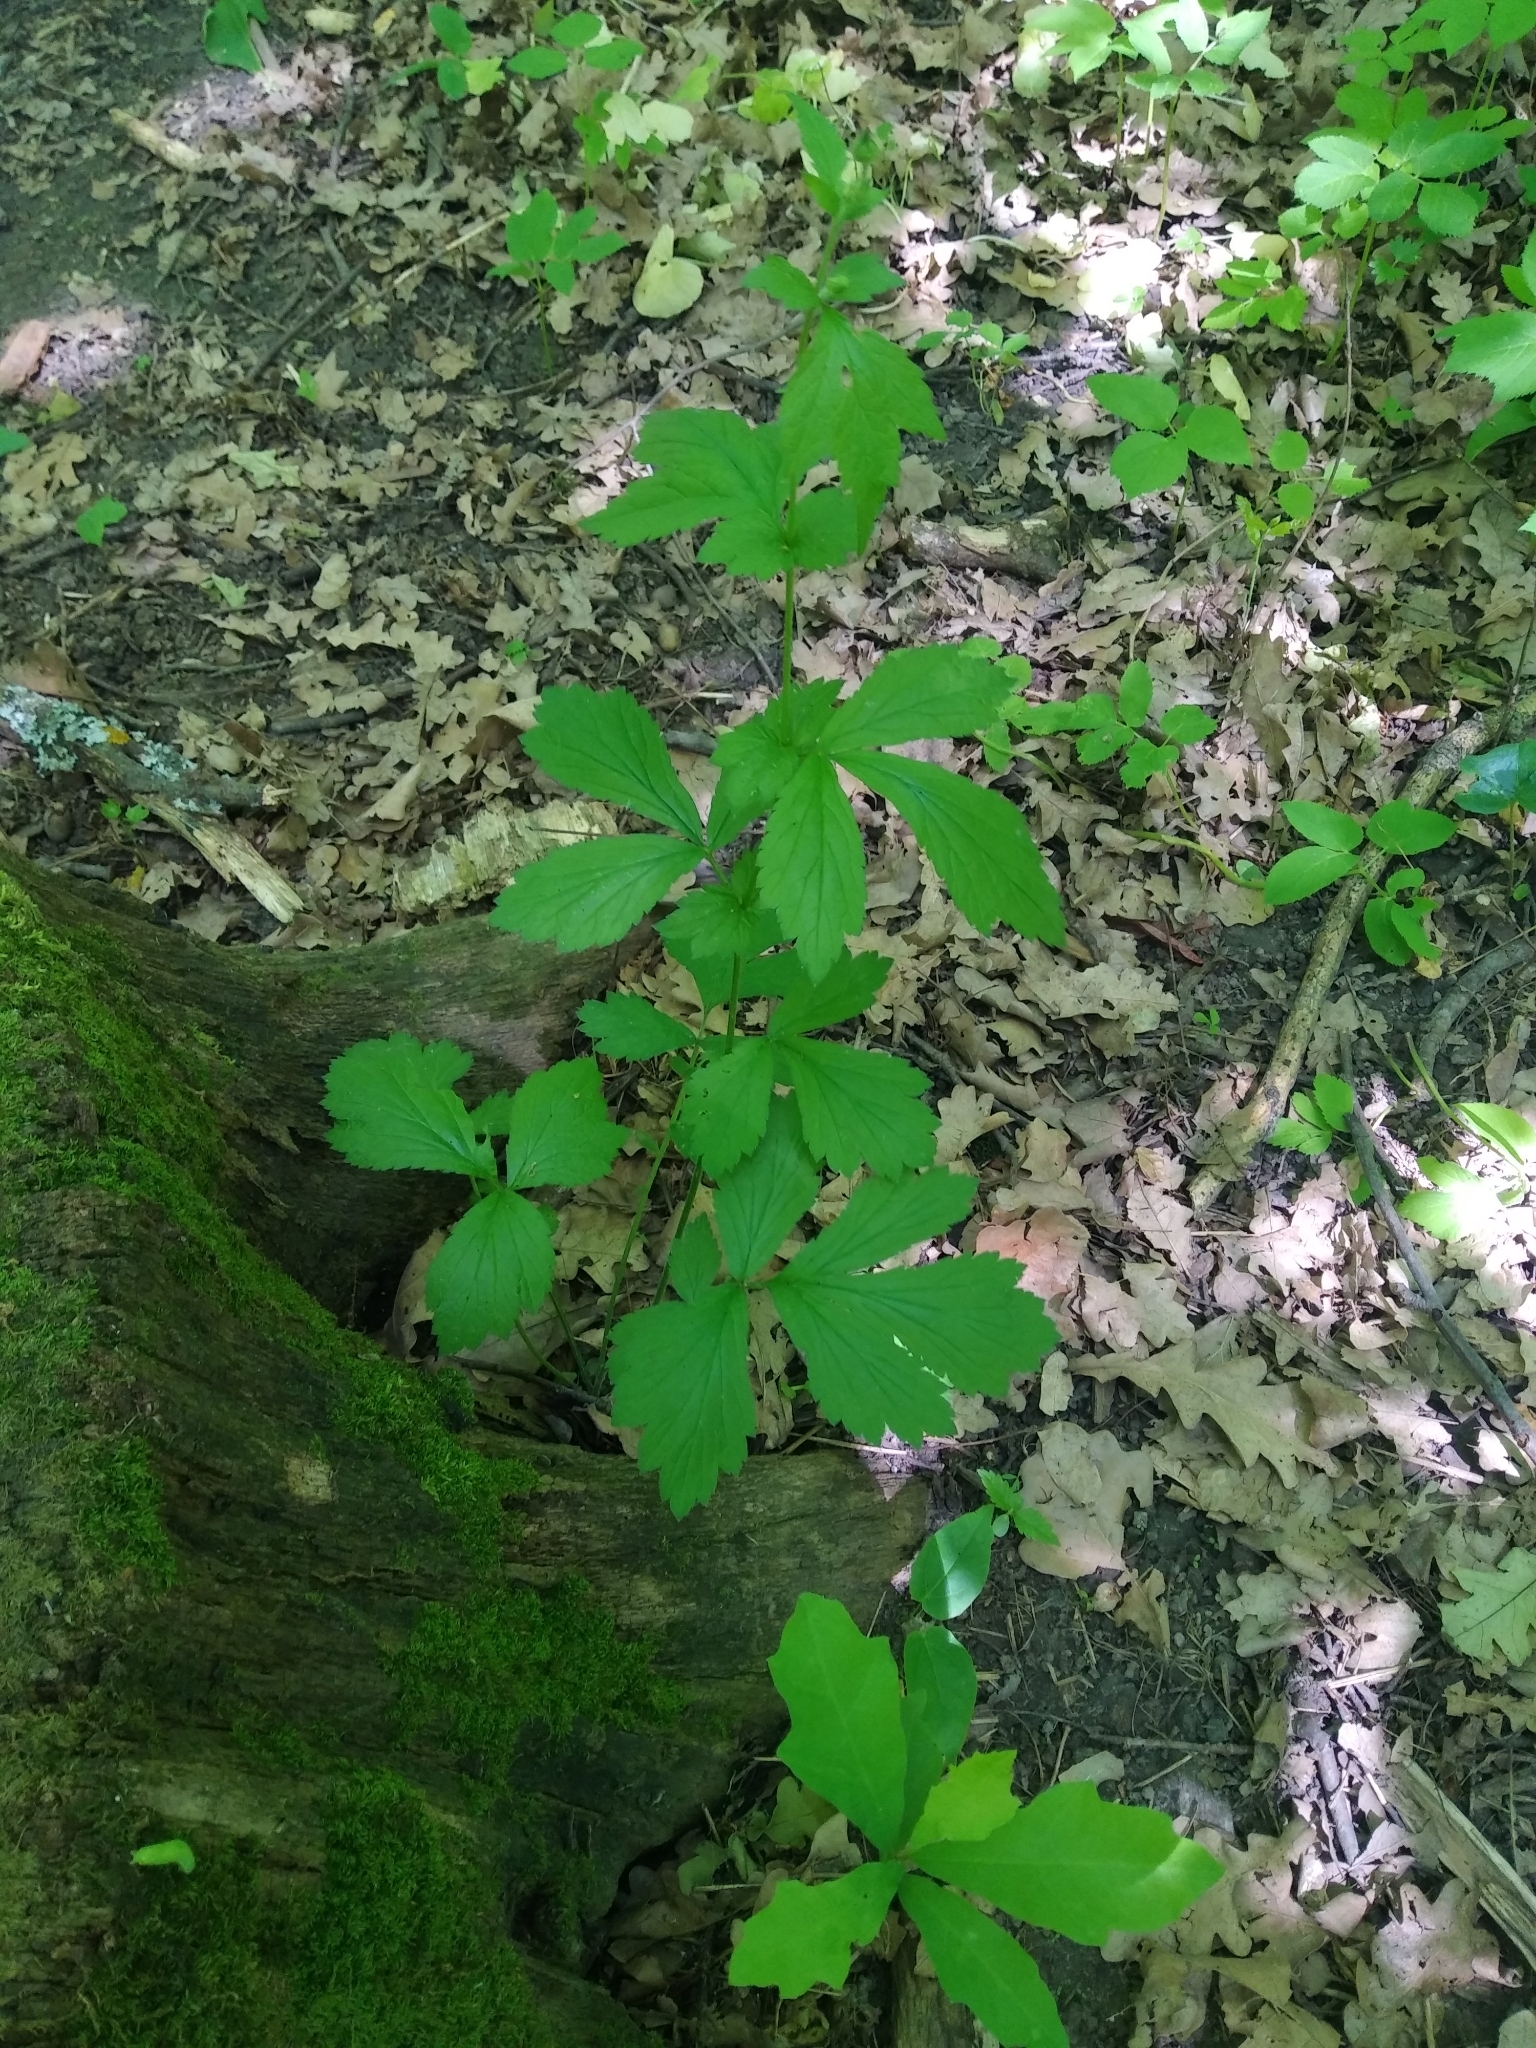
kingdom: Plantae
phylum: Tracheophyta
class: Magnoliopsida
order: Rosales
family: Rosaceae
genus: Geum
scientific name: Geum
